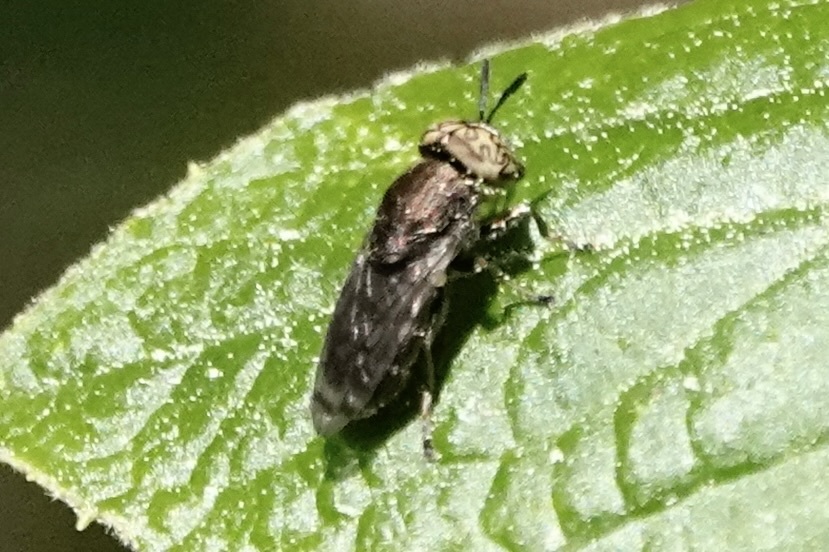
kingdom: Animalia
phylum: Arthropoda
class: Insecta
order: Diptera
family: Syrphidae
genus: Orthonevra
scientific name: Orthonevra nitida
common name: Wavy mucksucker
